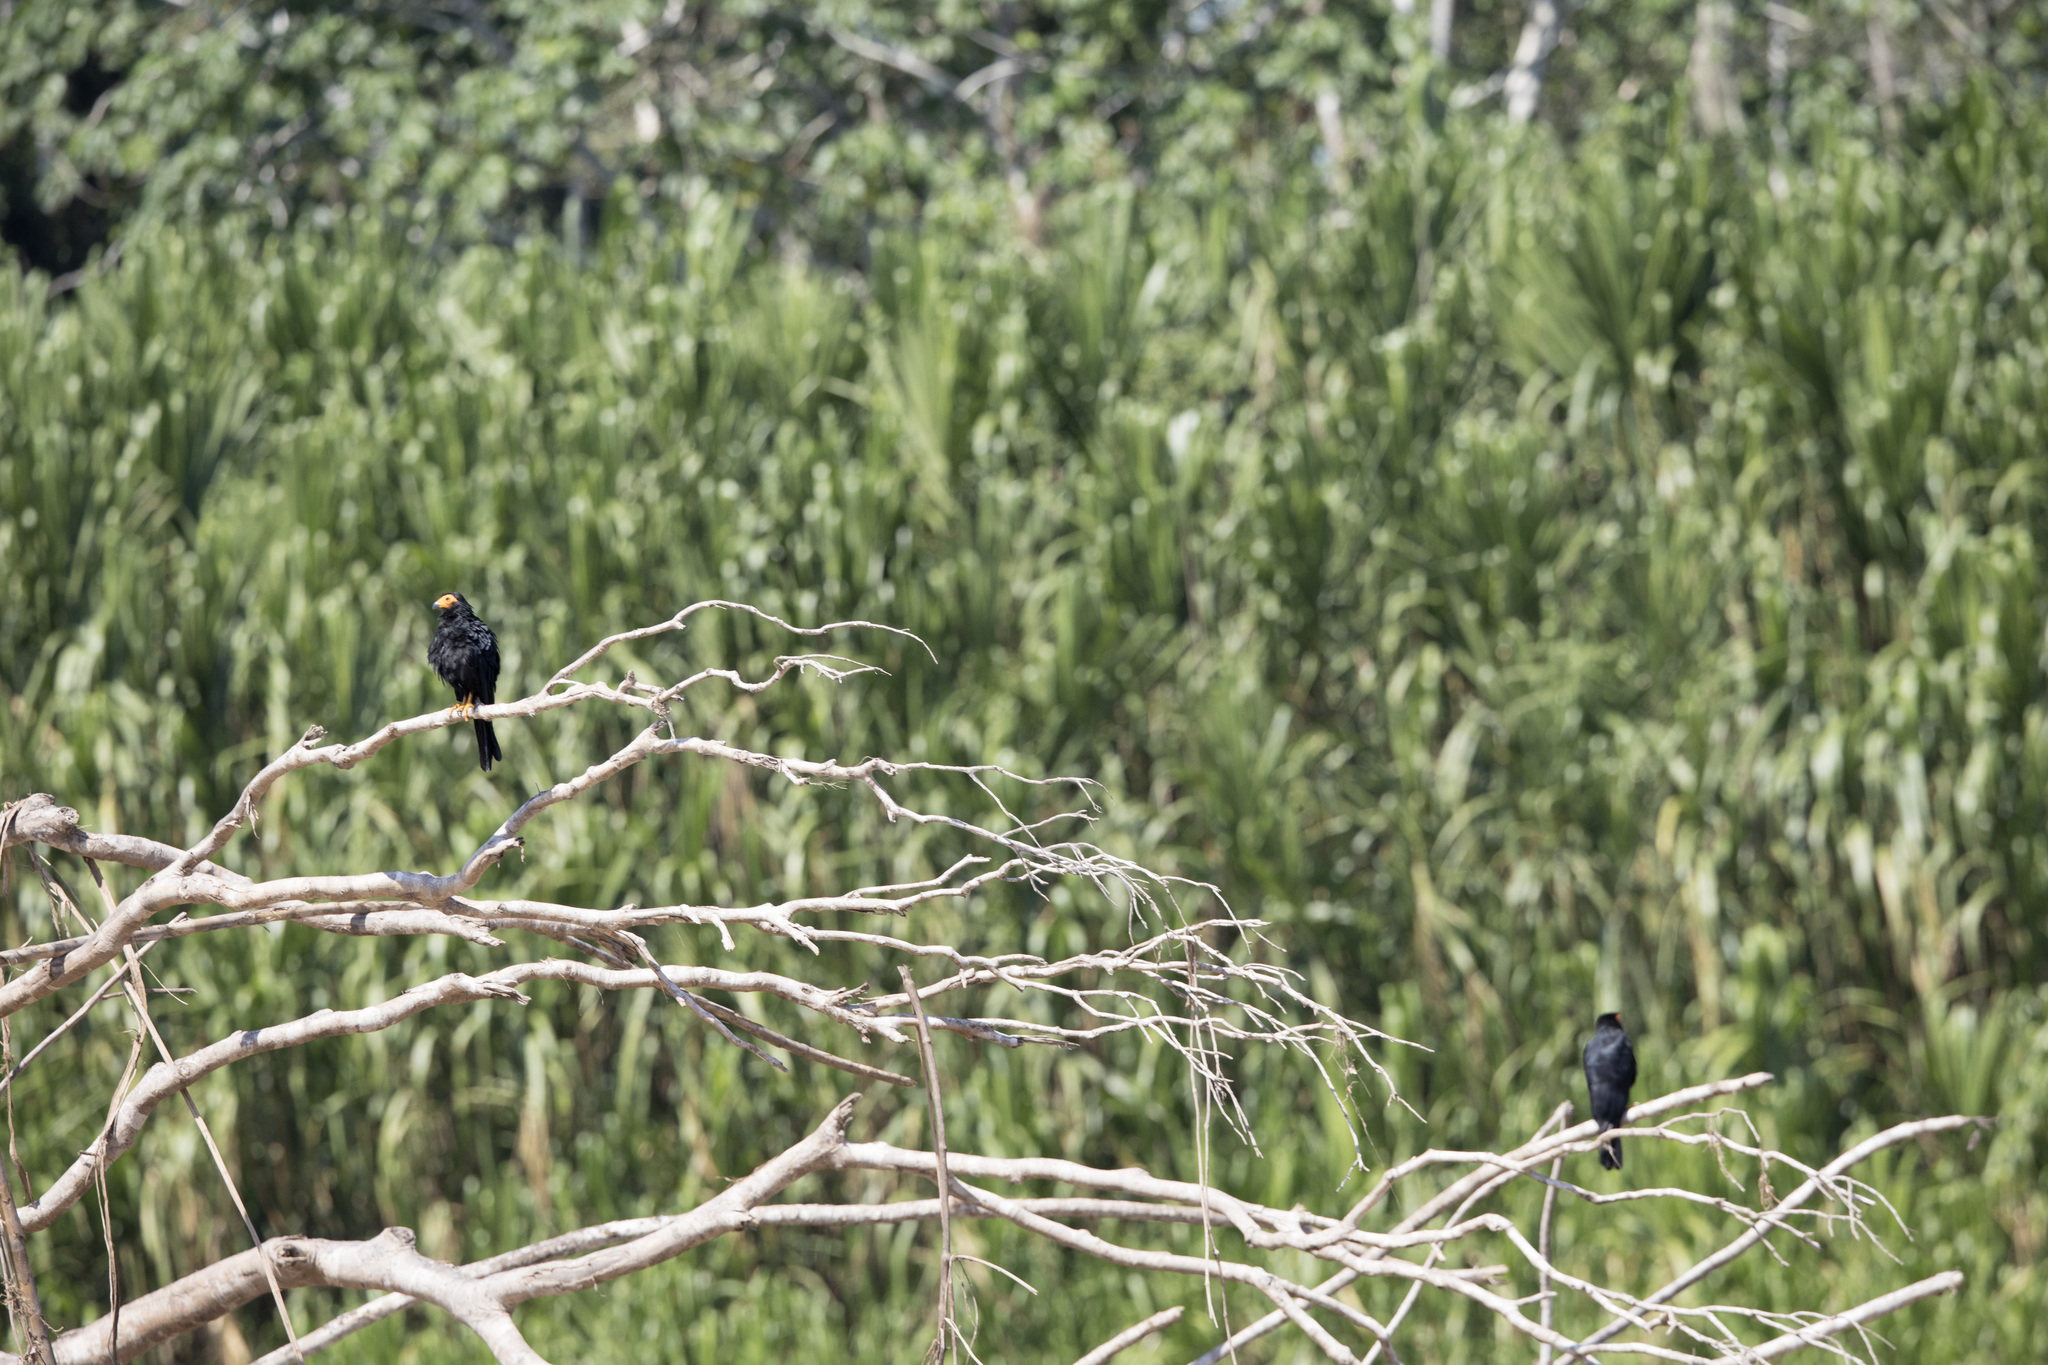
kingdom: Animalia
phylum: Chordata
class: Aves
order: Falconiformes
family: Falconidae
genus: Daptrius
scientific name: Daptrius ater
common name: Black caracara
